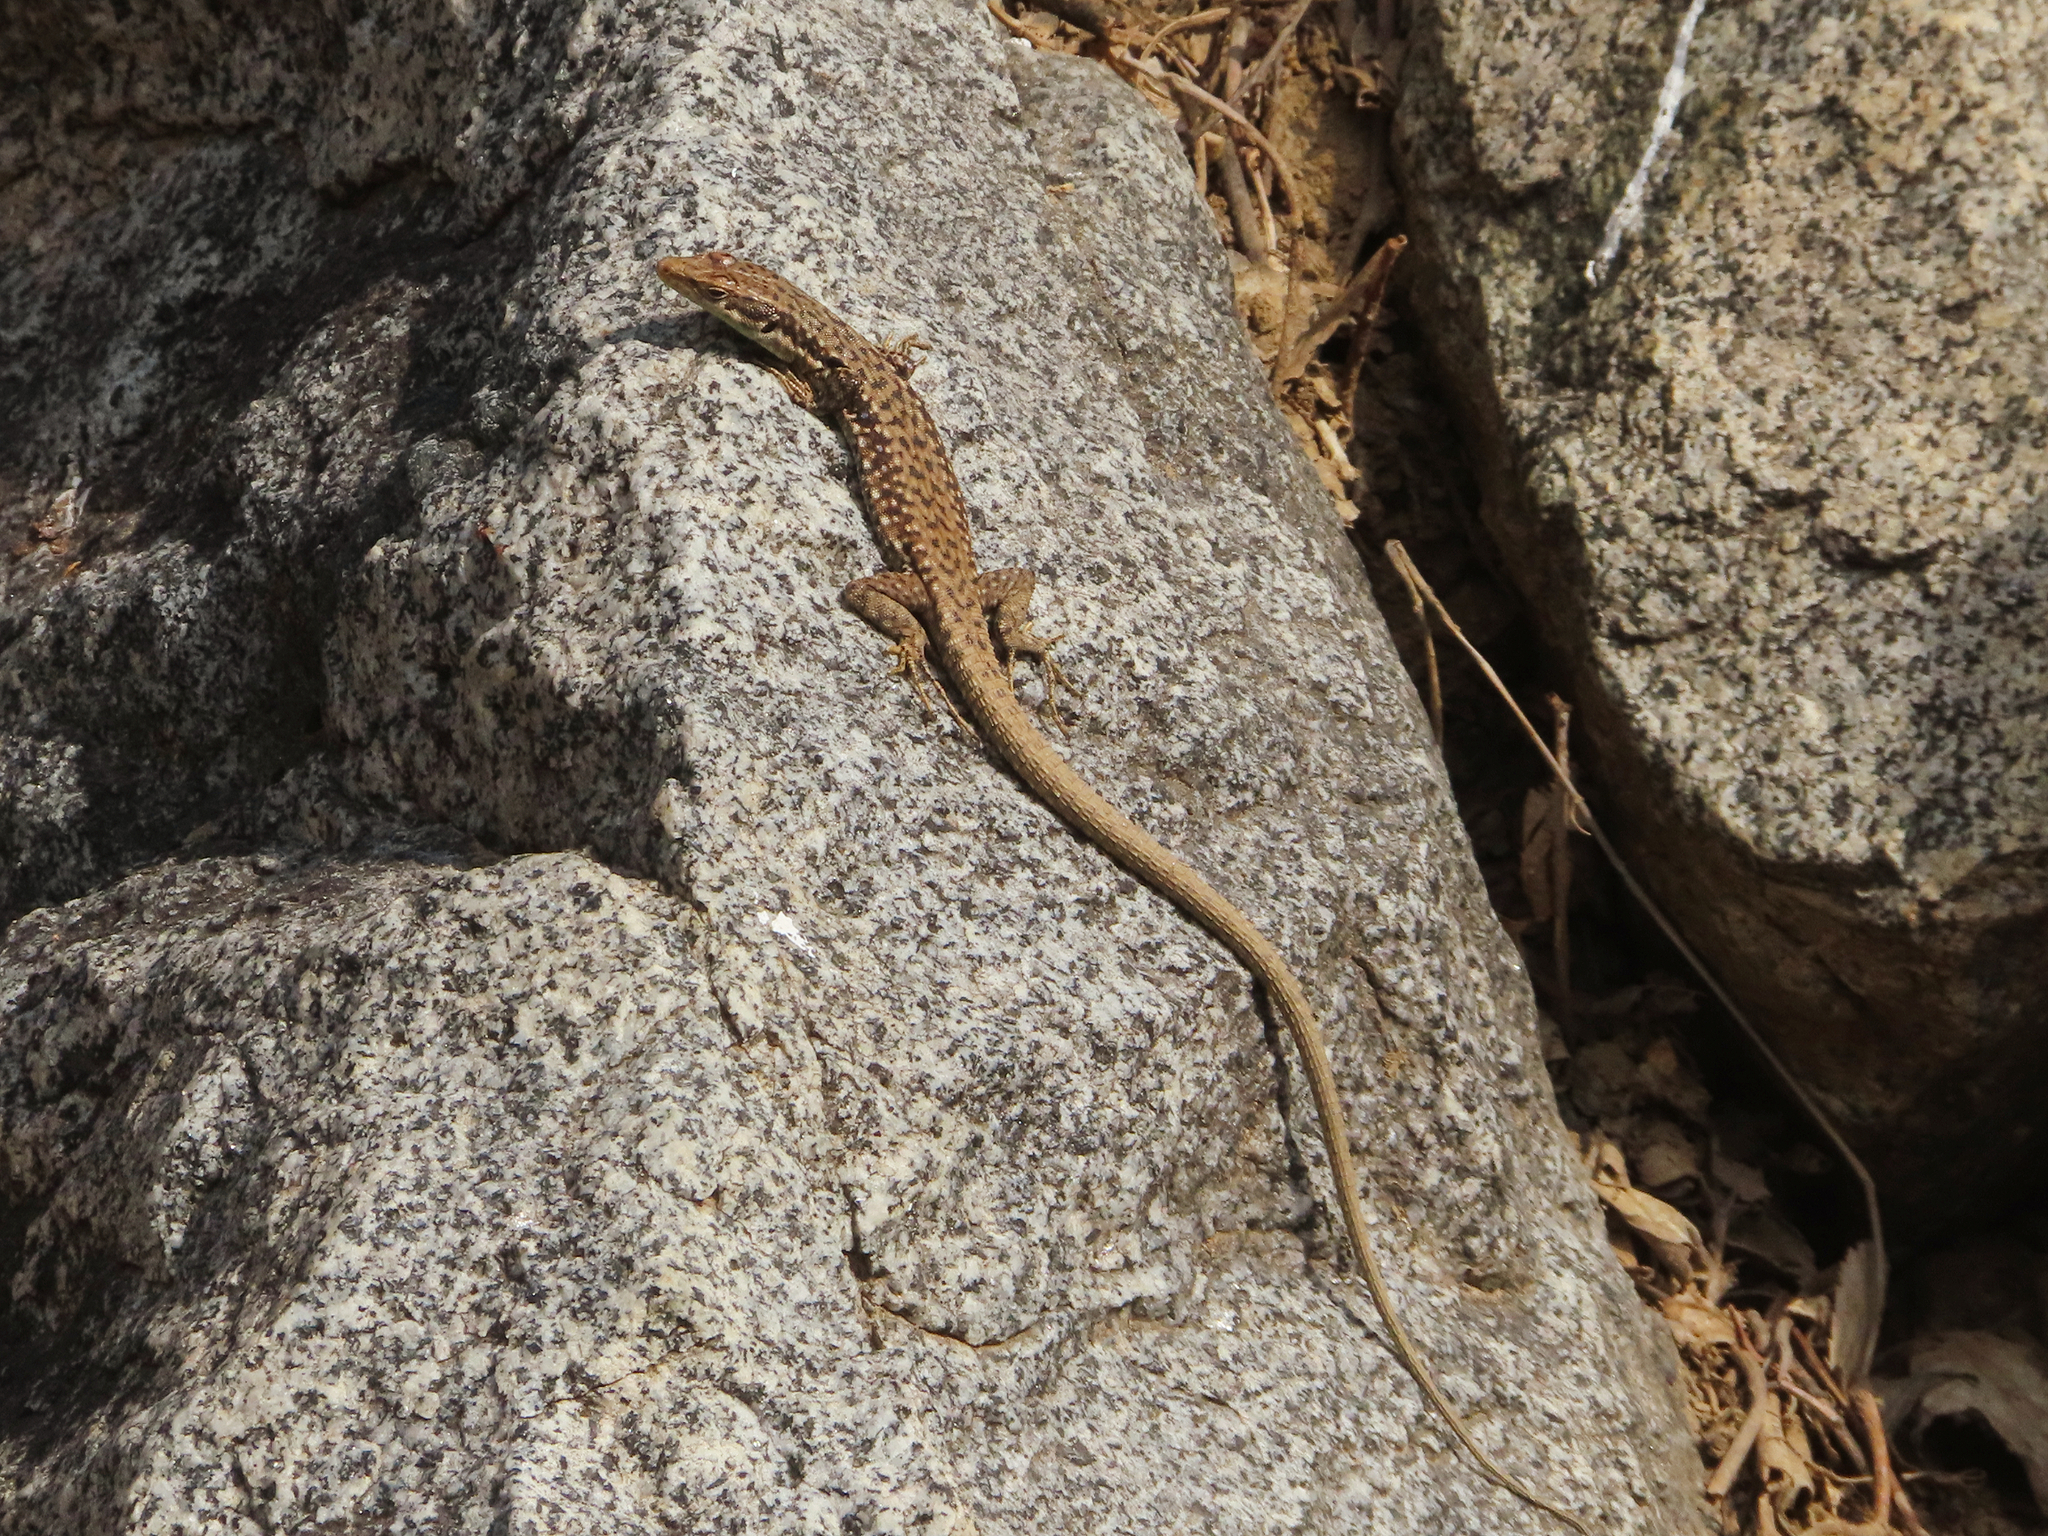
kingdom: Animalia
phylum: Chordata
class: Squamata
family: Lacertidae
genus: Darevskia
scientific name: Darevskia raddei
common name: Radde's lizard
